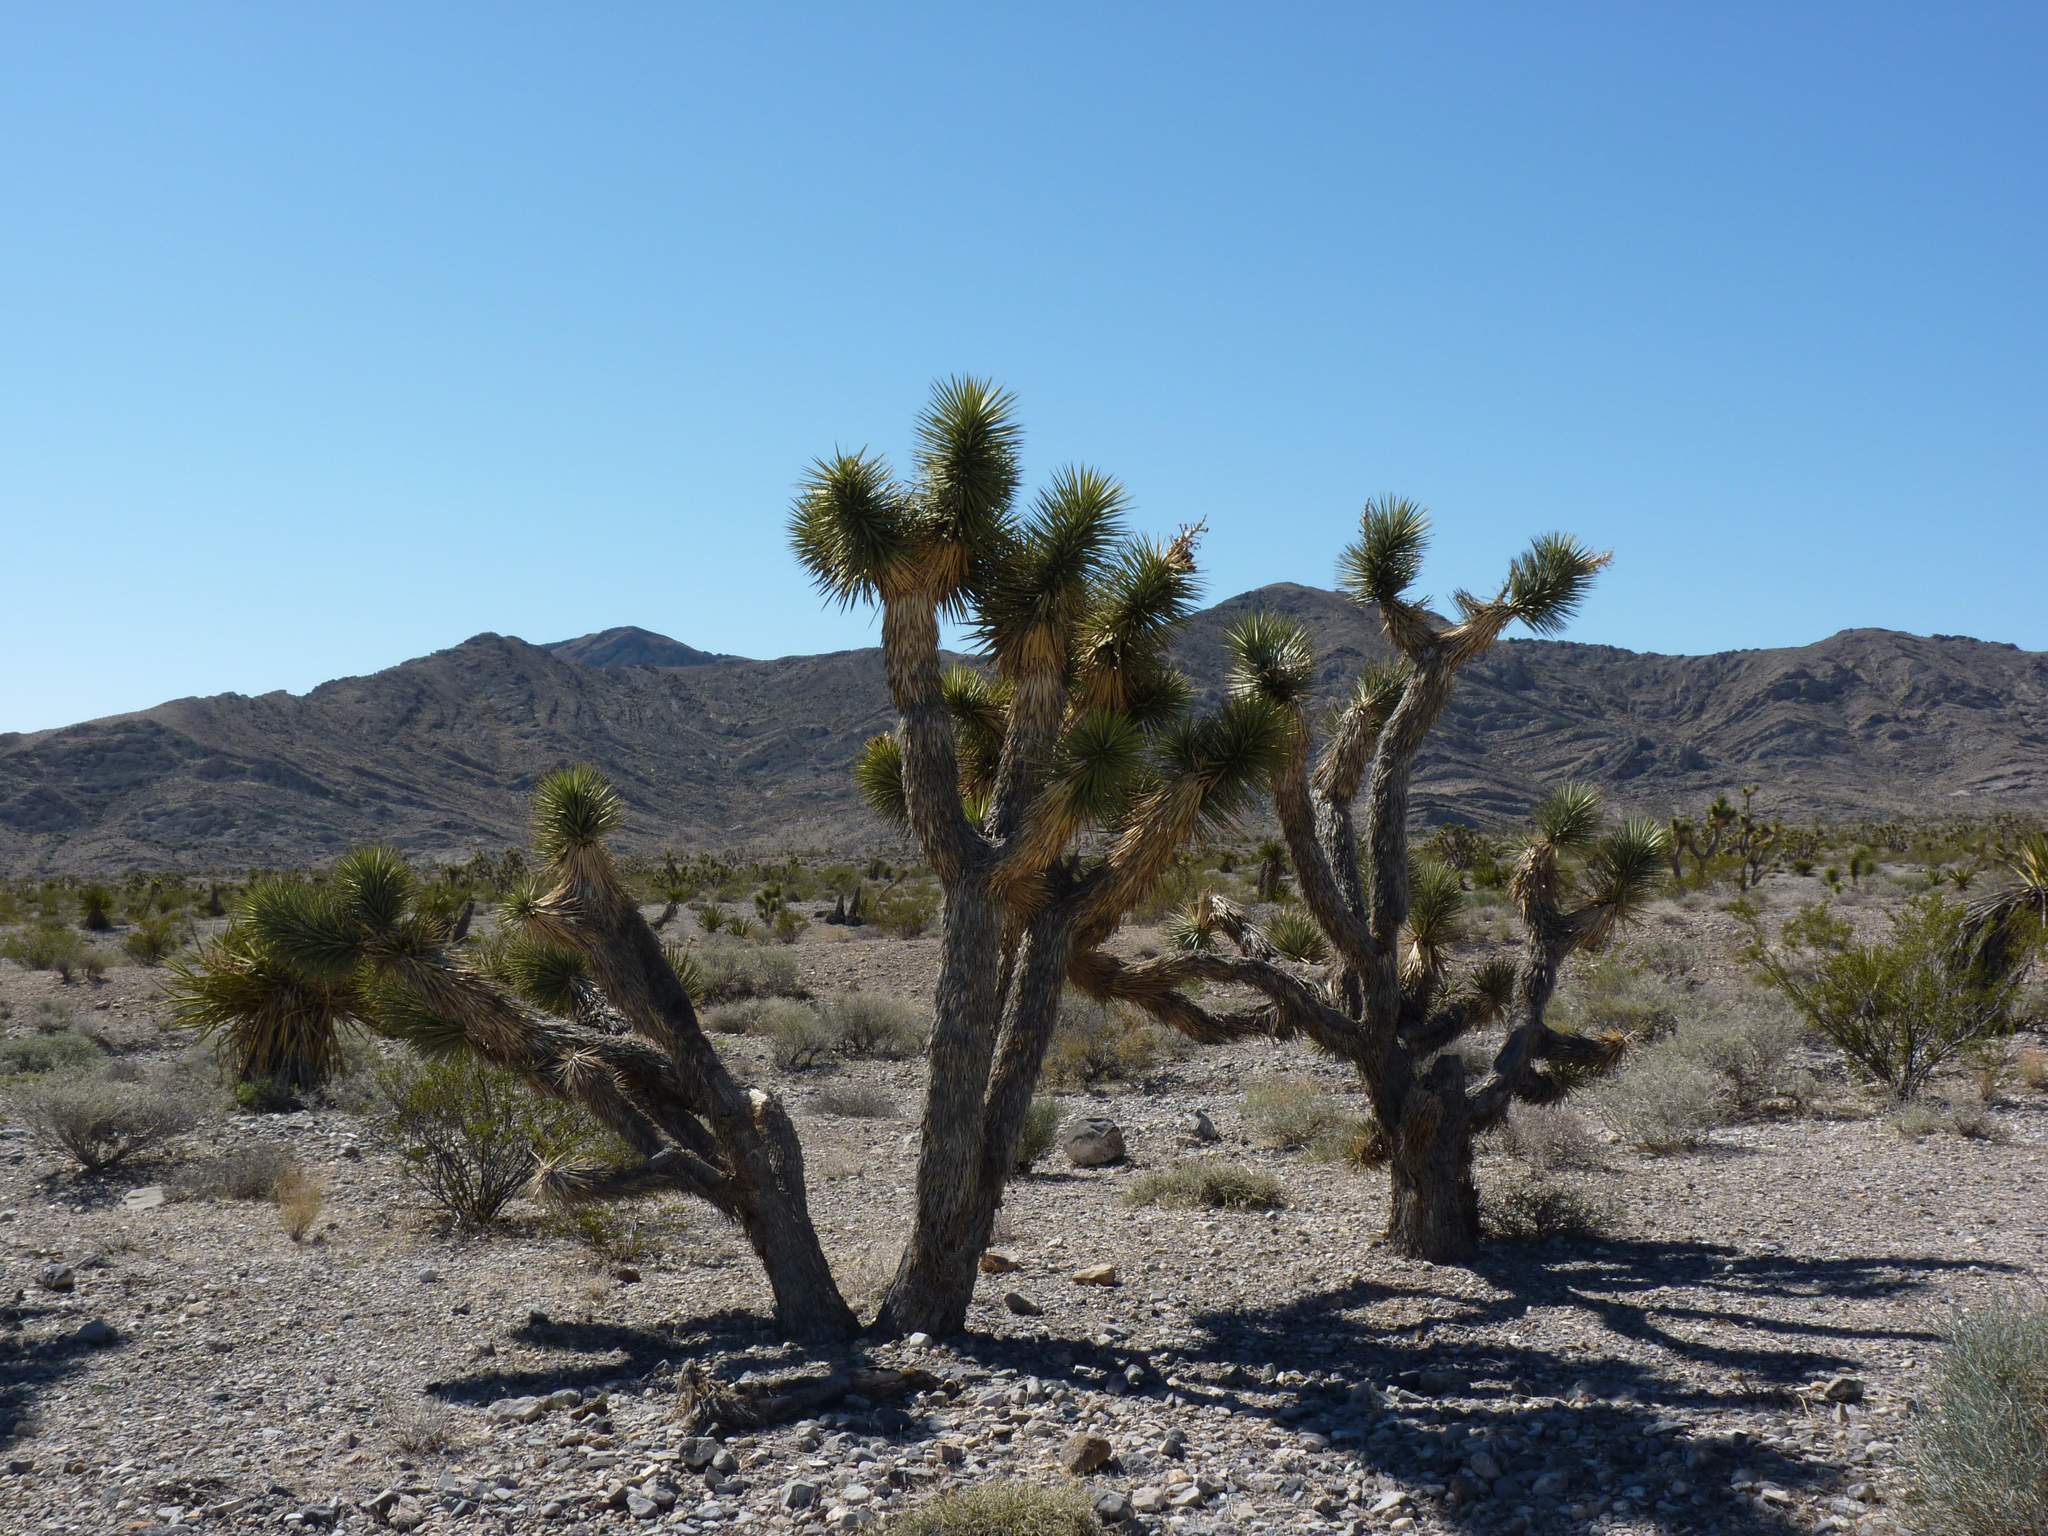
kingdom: Plantae
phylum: Tracheophyta
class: Liliopsida
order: Asparagales
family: Asparagaceae
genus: Yucca
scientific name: Yucca brevifolia
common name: Joshua tree
